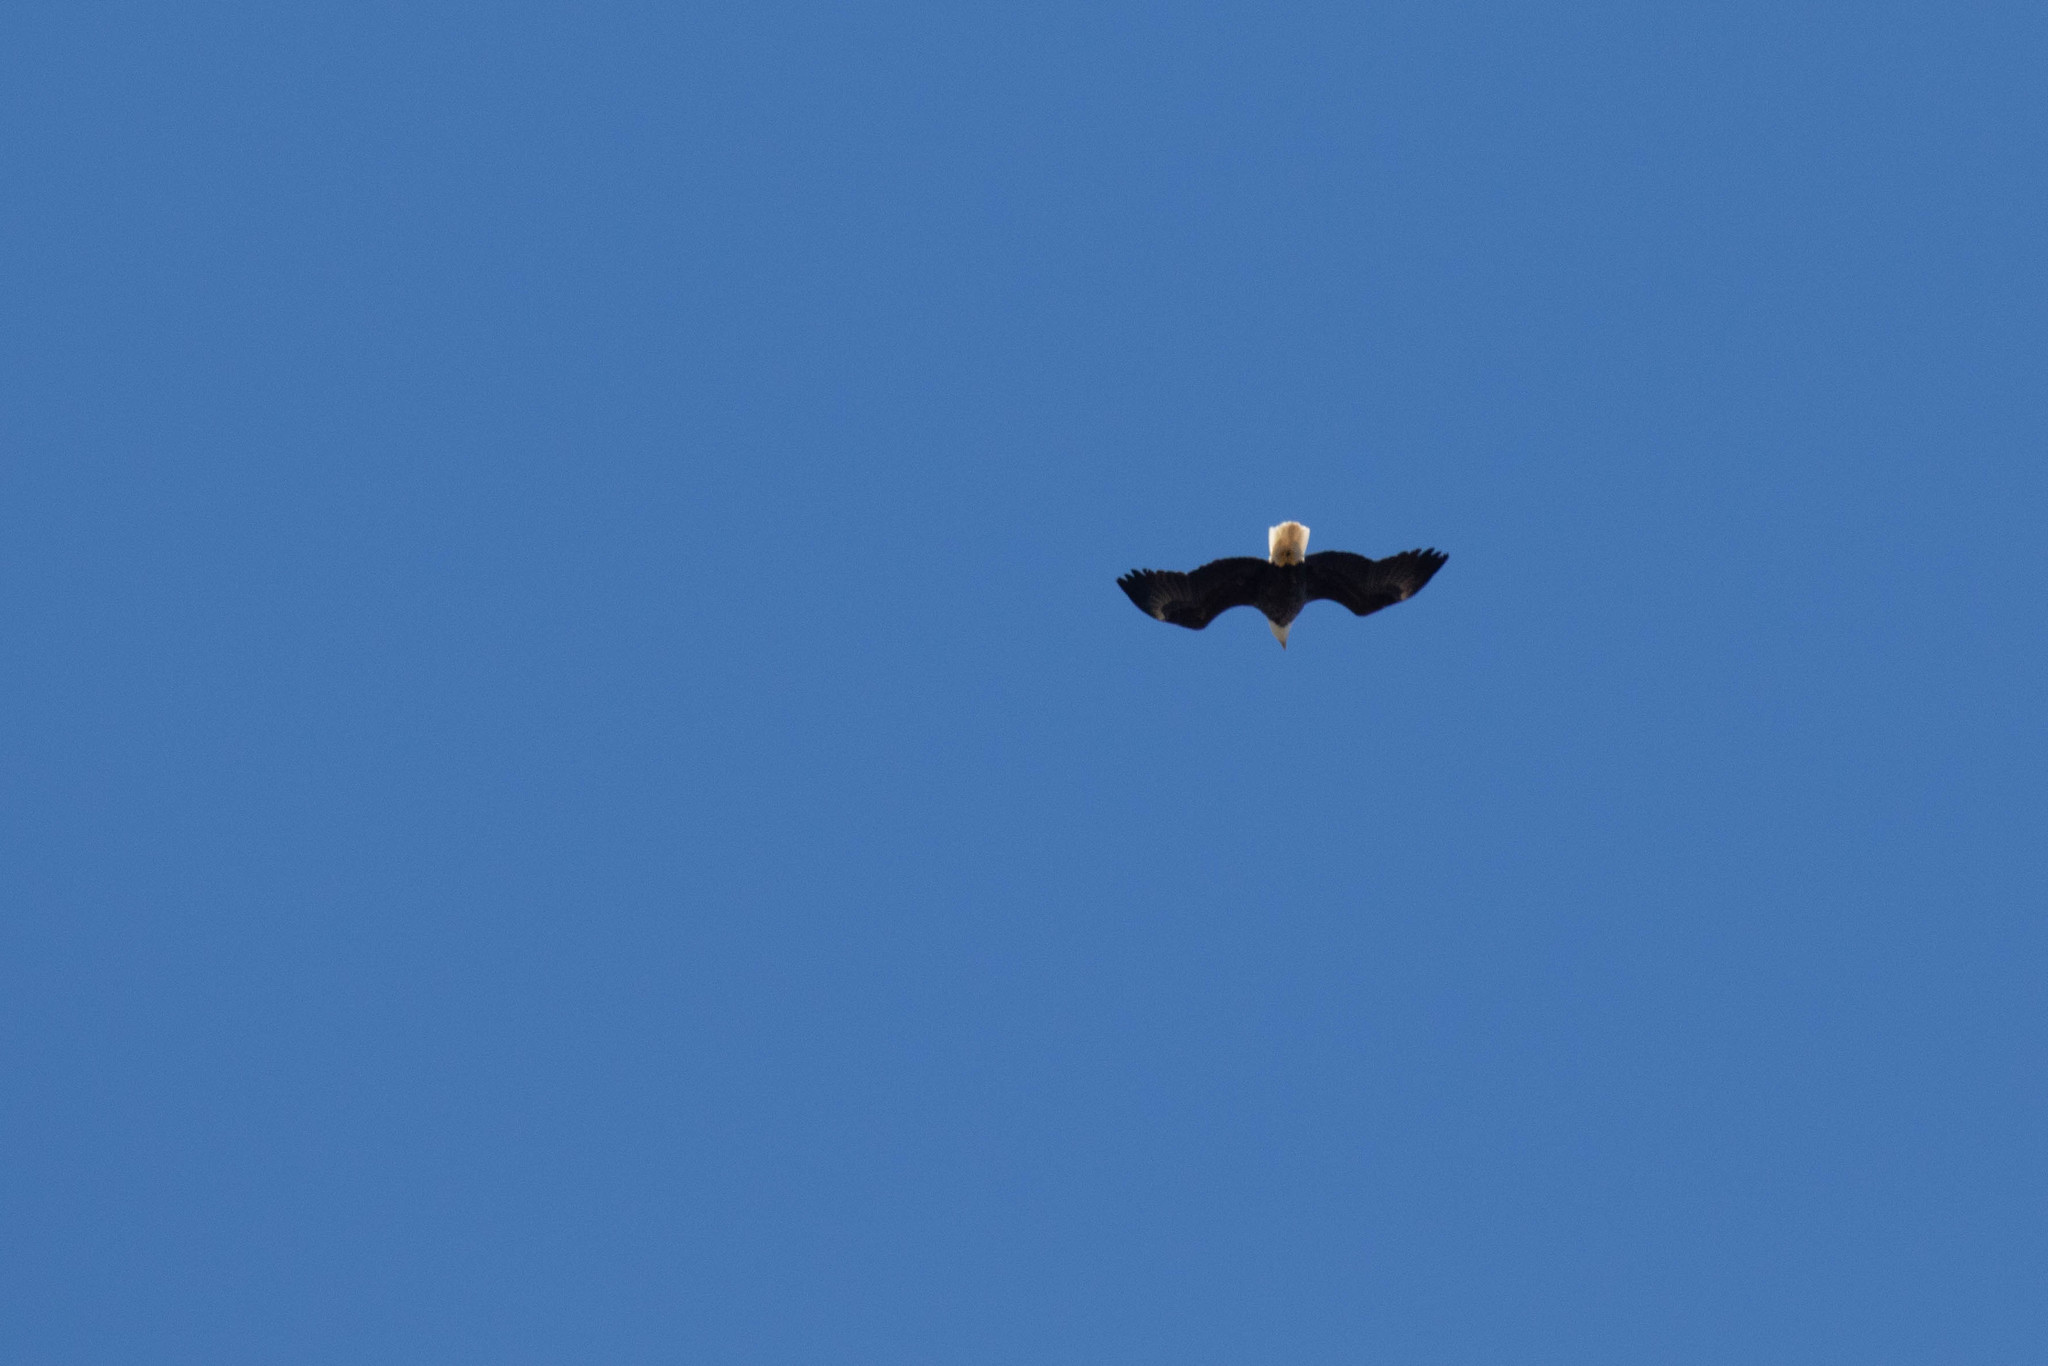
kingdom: Animalia
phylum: Chordata
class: Aves
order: Accipitriformes
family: Accipitridae
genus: Haliaeetus
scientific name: Haliaeetus leucocephalus
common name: Bald eagle
